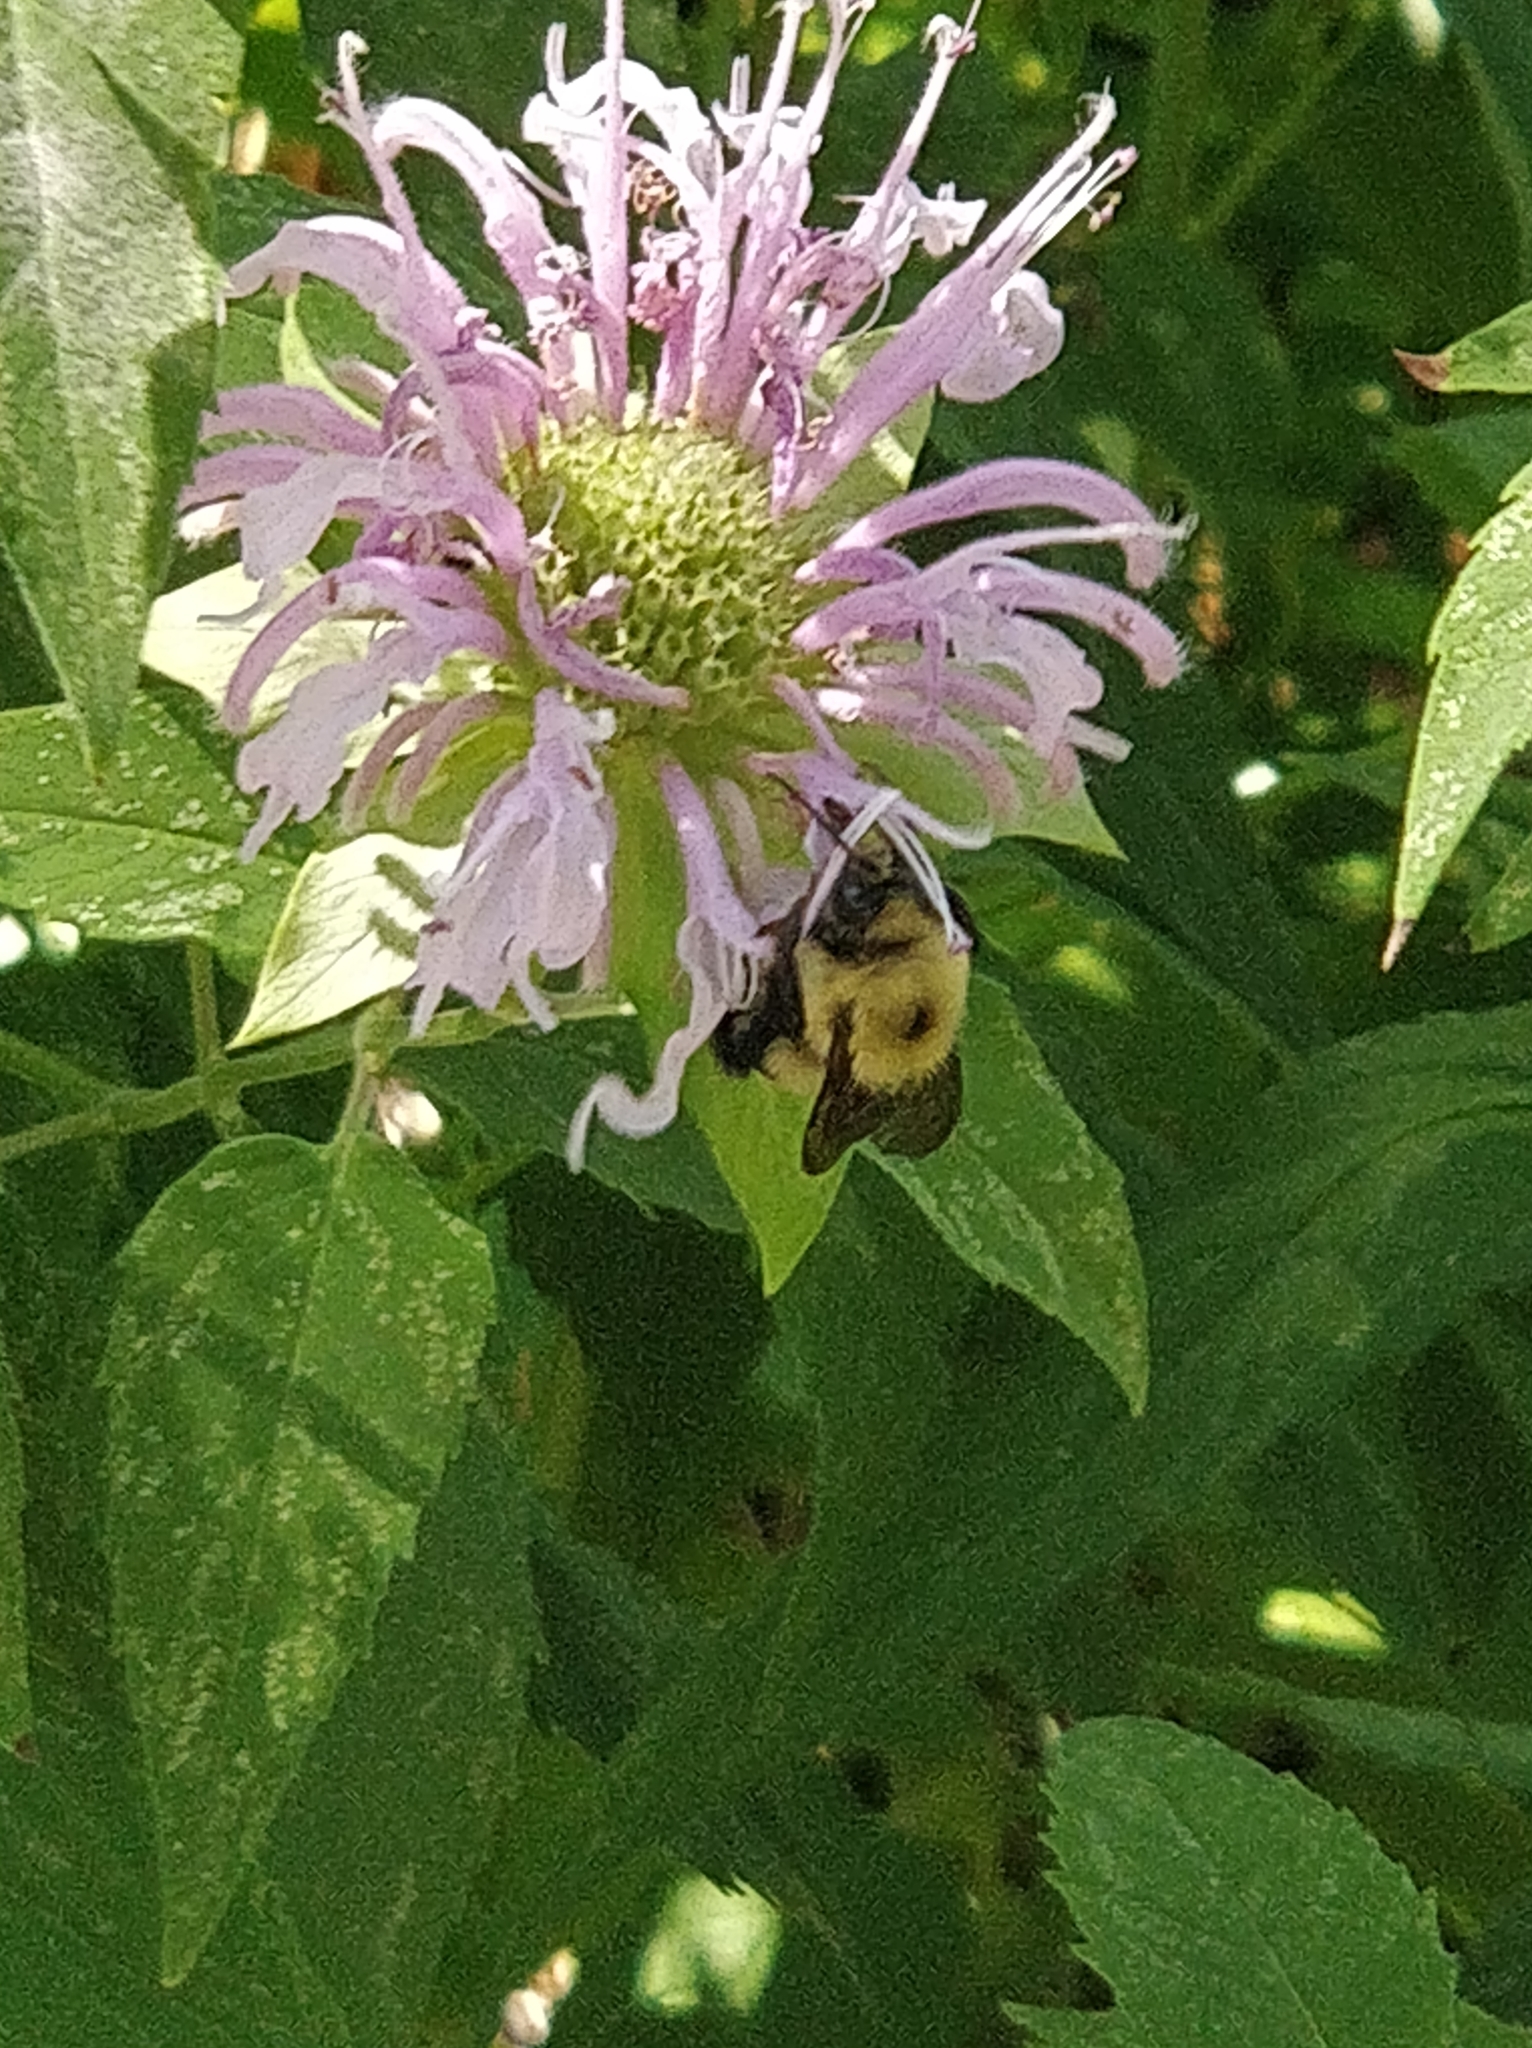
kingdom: Animalia
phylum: Arthropoda
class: Insecta
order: Hymenoptera
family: Apidae
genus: Bombus
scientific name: Bombus bimaculatus
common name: Two-spotted bumble bee
